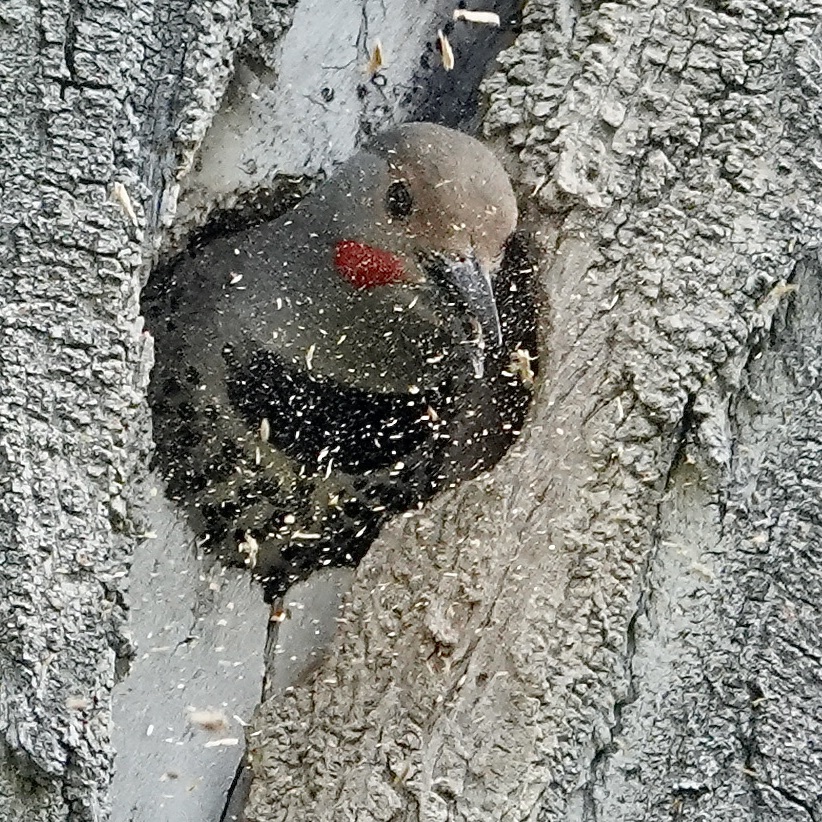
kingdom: Animalia
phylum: Chordata
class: Aves
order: Piciformes
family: Picidae
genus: Colaptes
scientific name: Colaptes auratus
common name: Northern flicker
